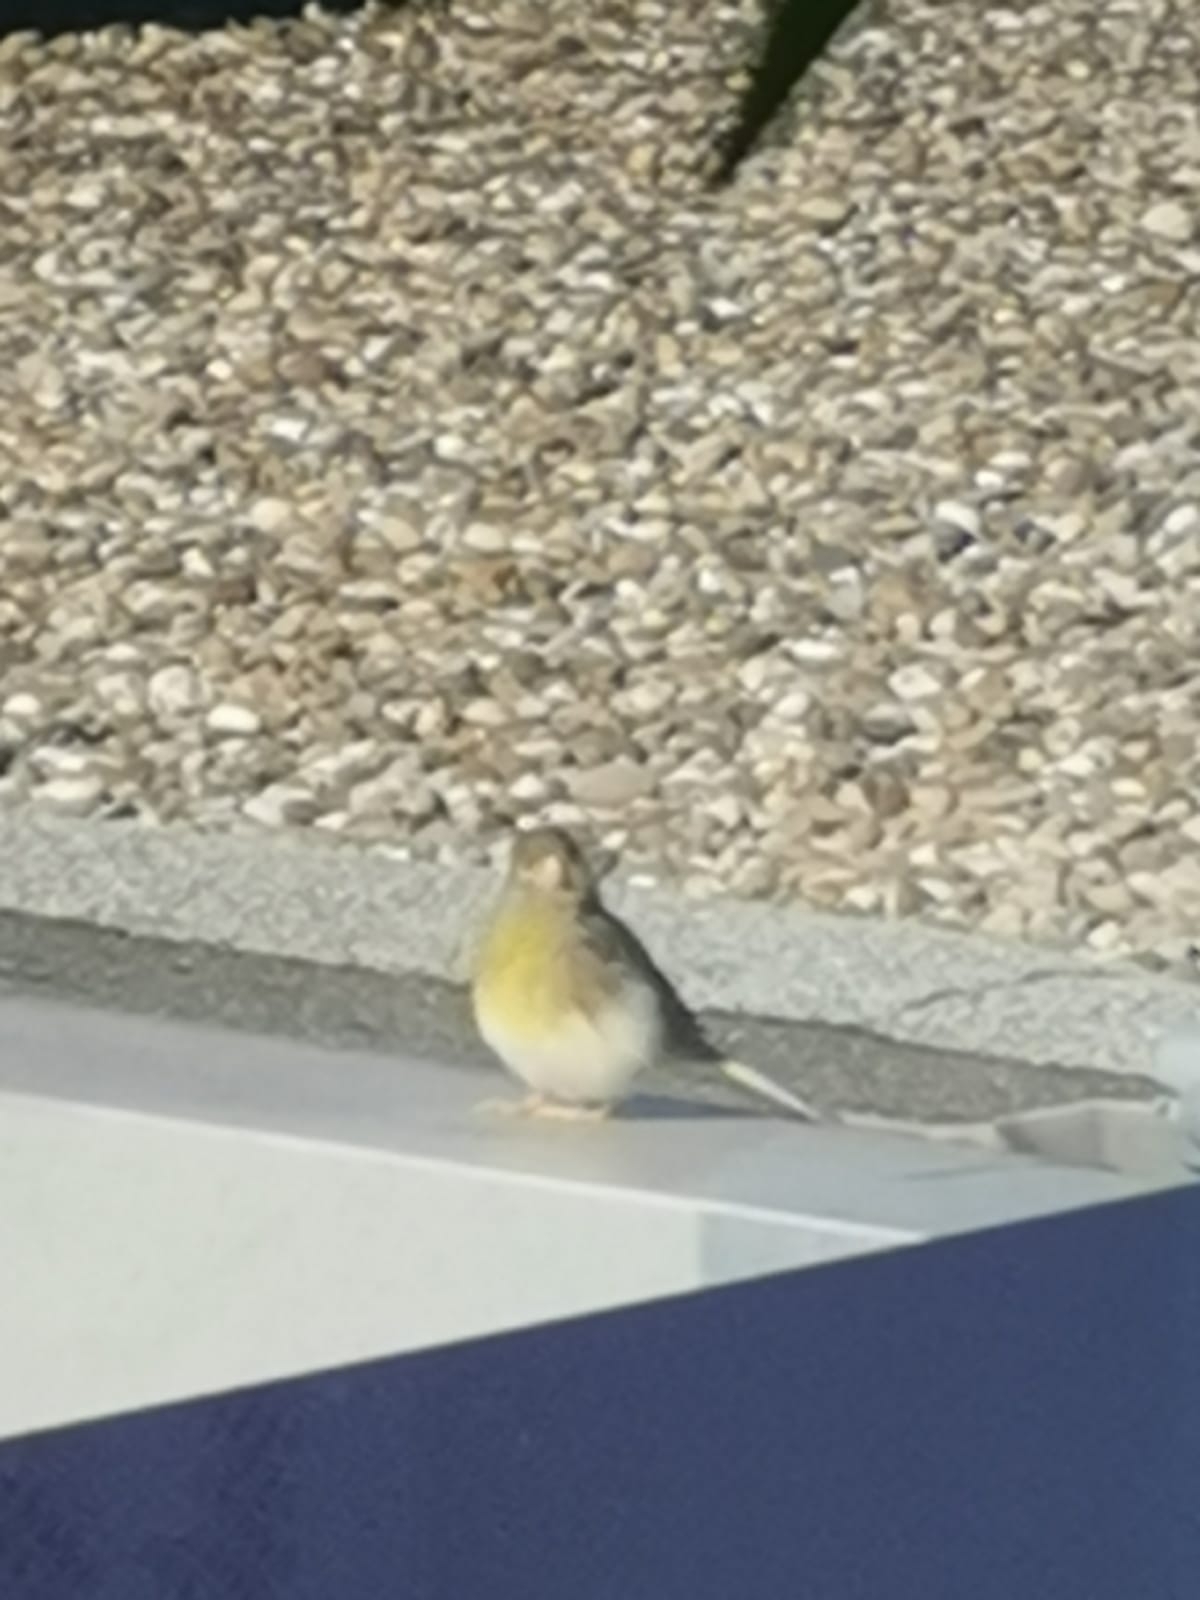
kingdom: Animalia
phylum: Chordata
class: Aves
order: Passeriformes
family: Fringillidae
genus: Serinus
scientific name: Serinus canaria
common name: Atlantic canary
